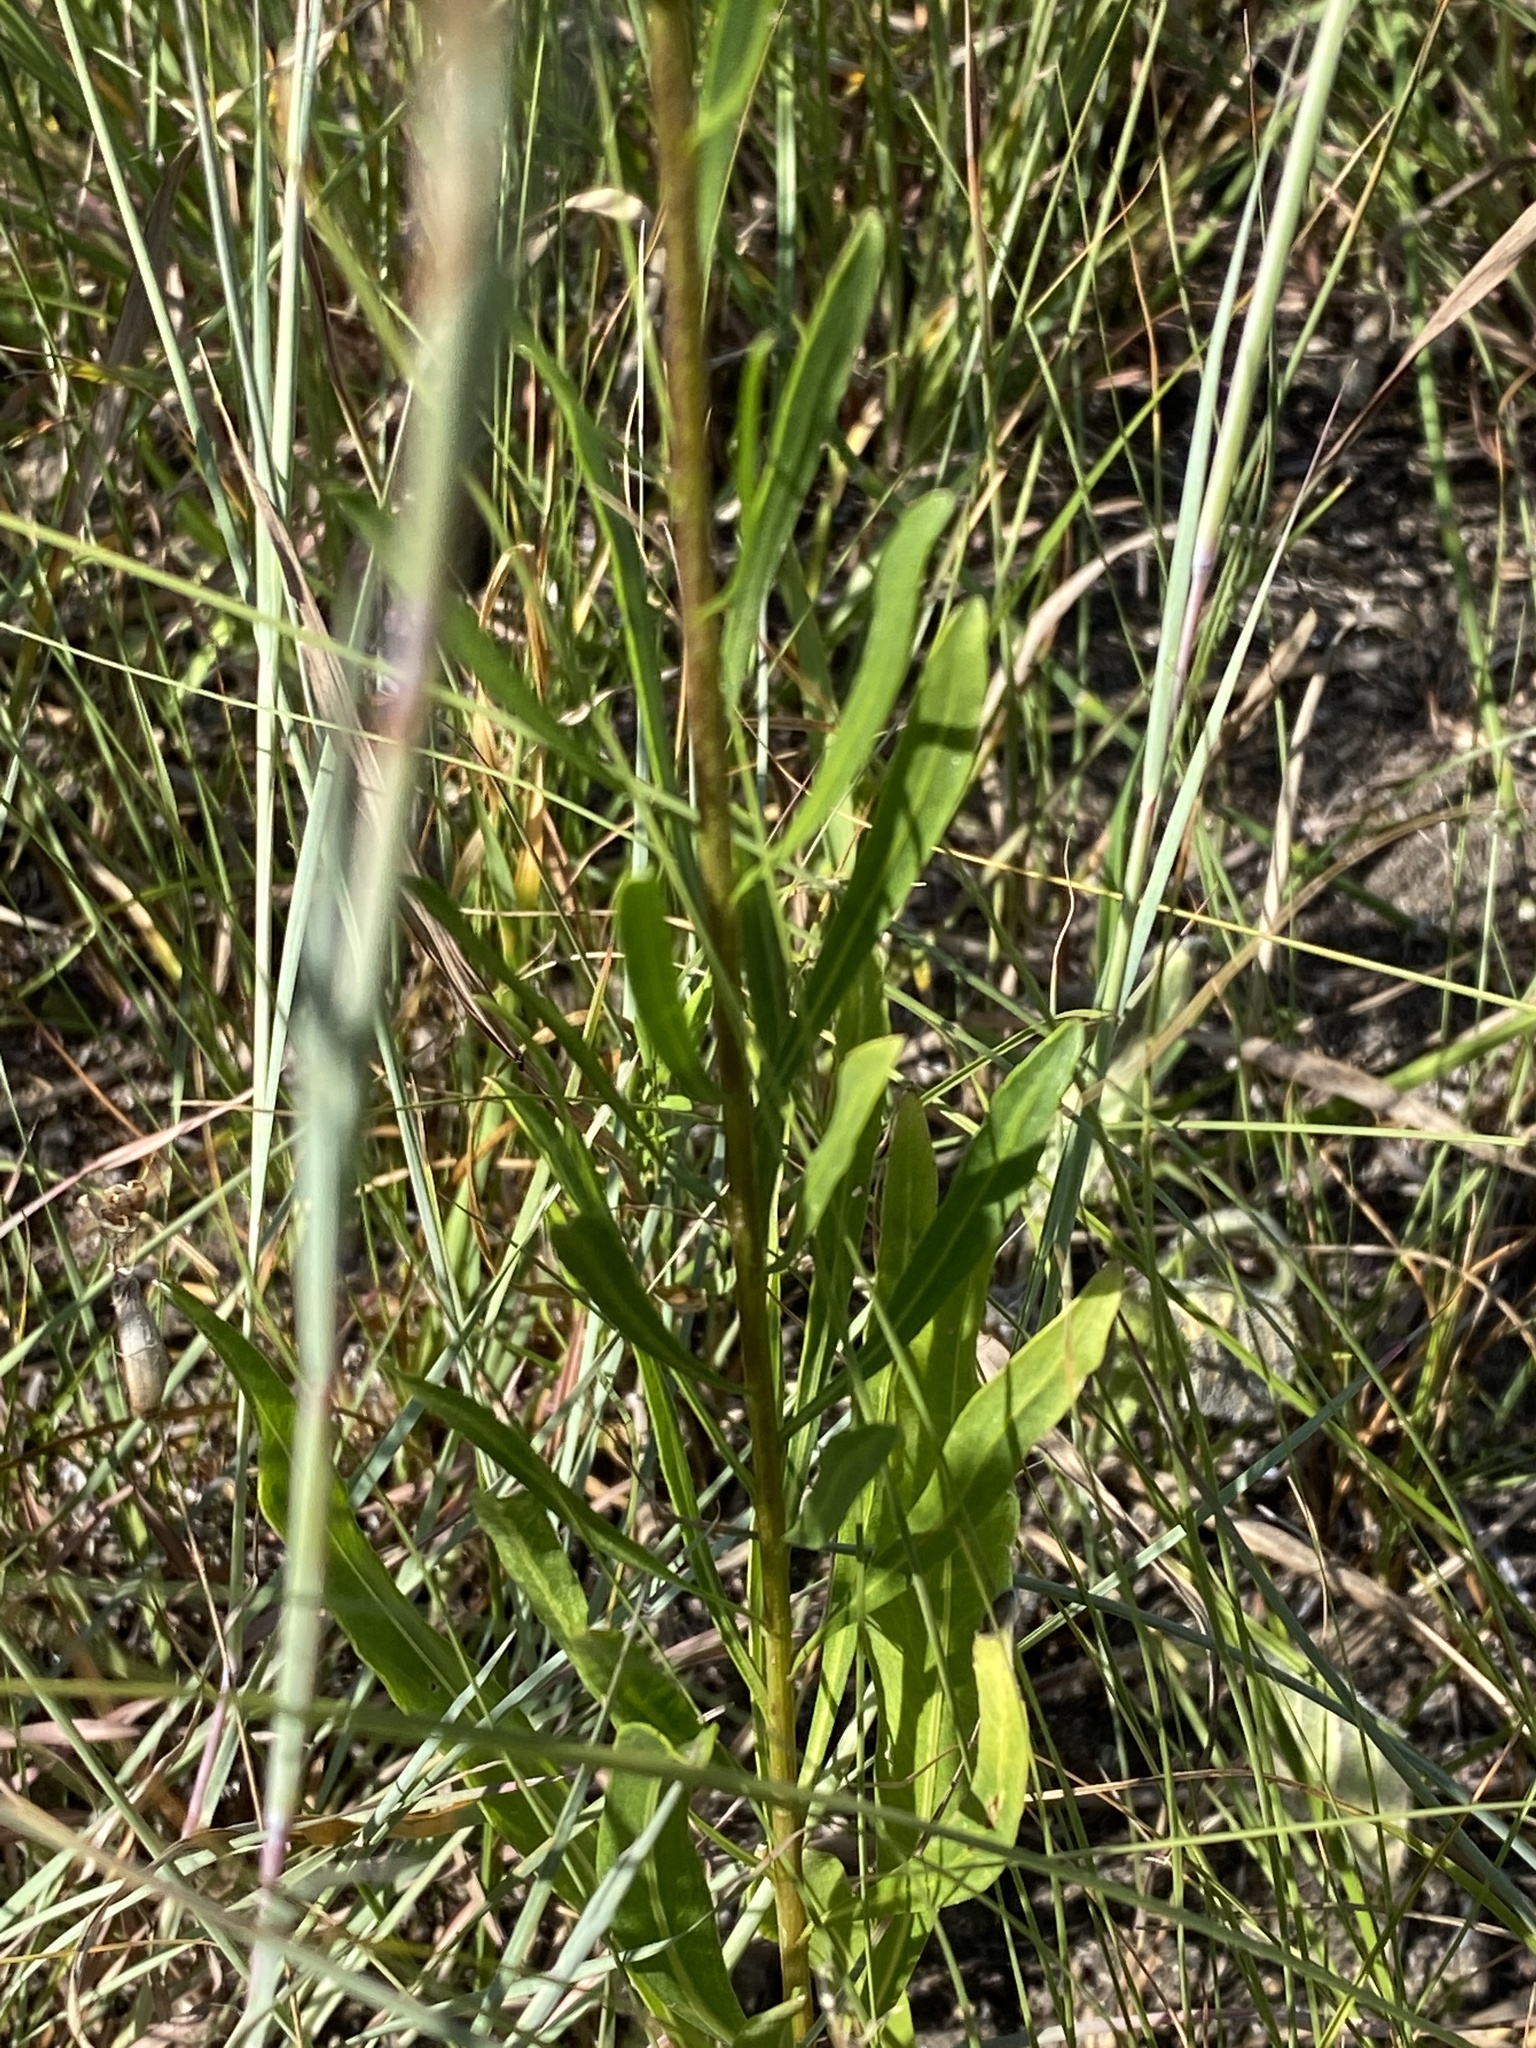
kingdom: Plantae
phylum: Tracheophyta
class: Magnoliopsida
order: Asterales
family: Asteraceae
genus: Liatris
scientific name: Liatris aspera
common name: Lacerate blazing-star
